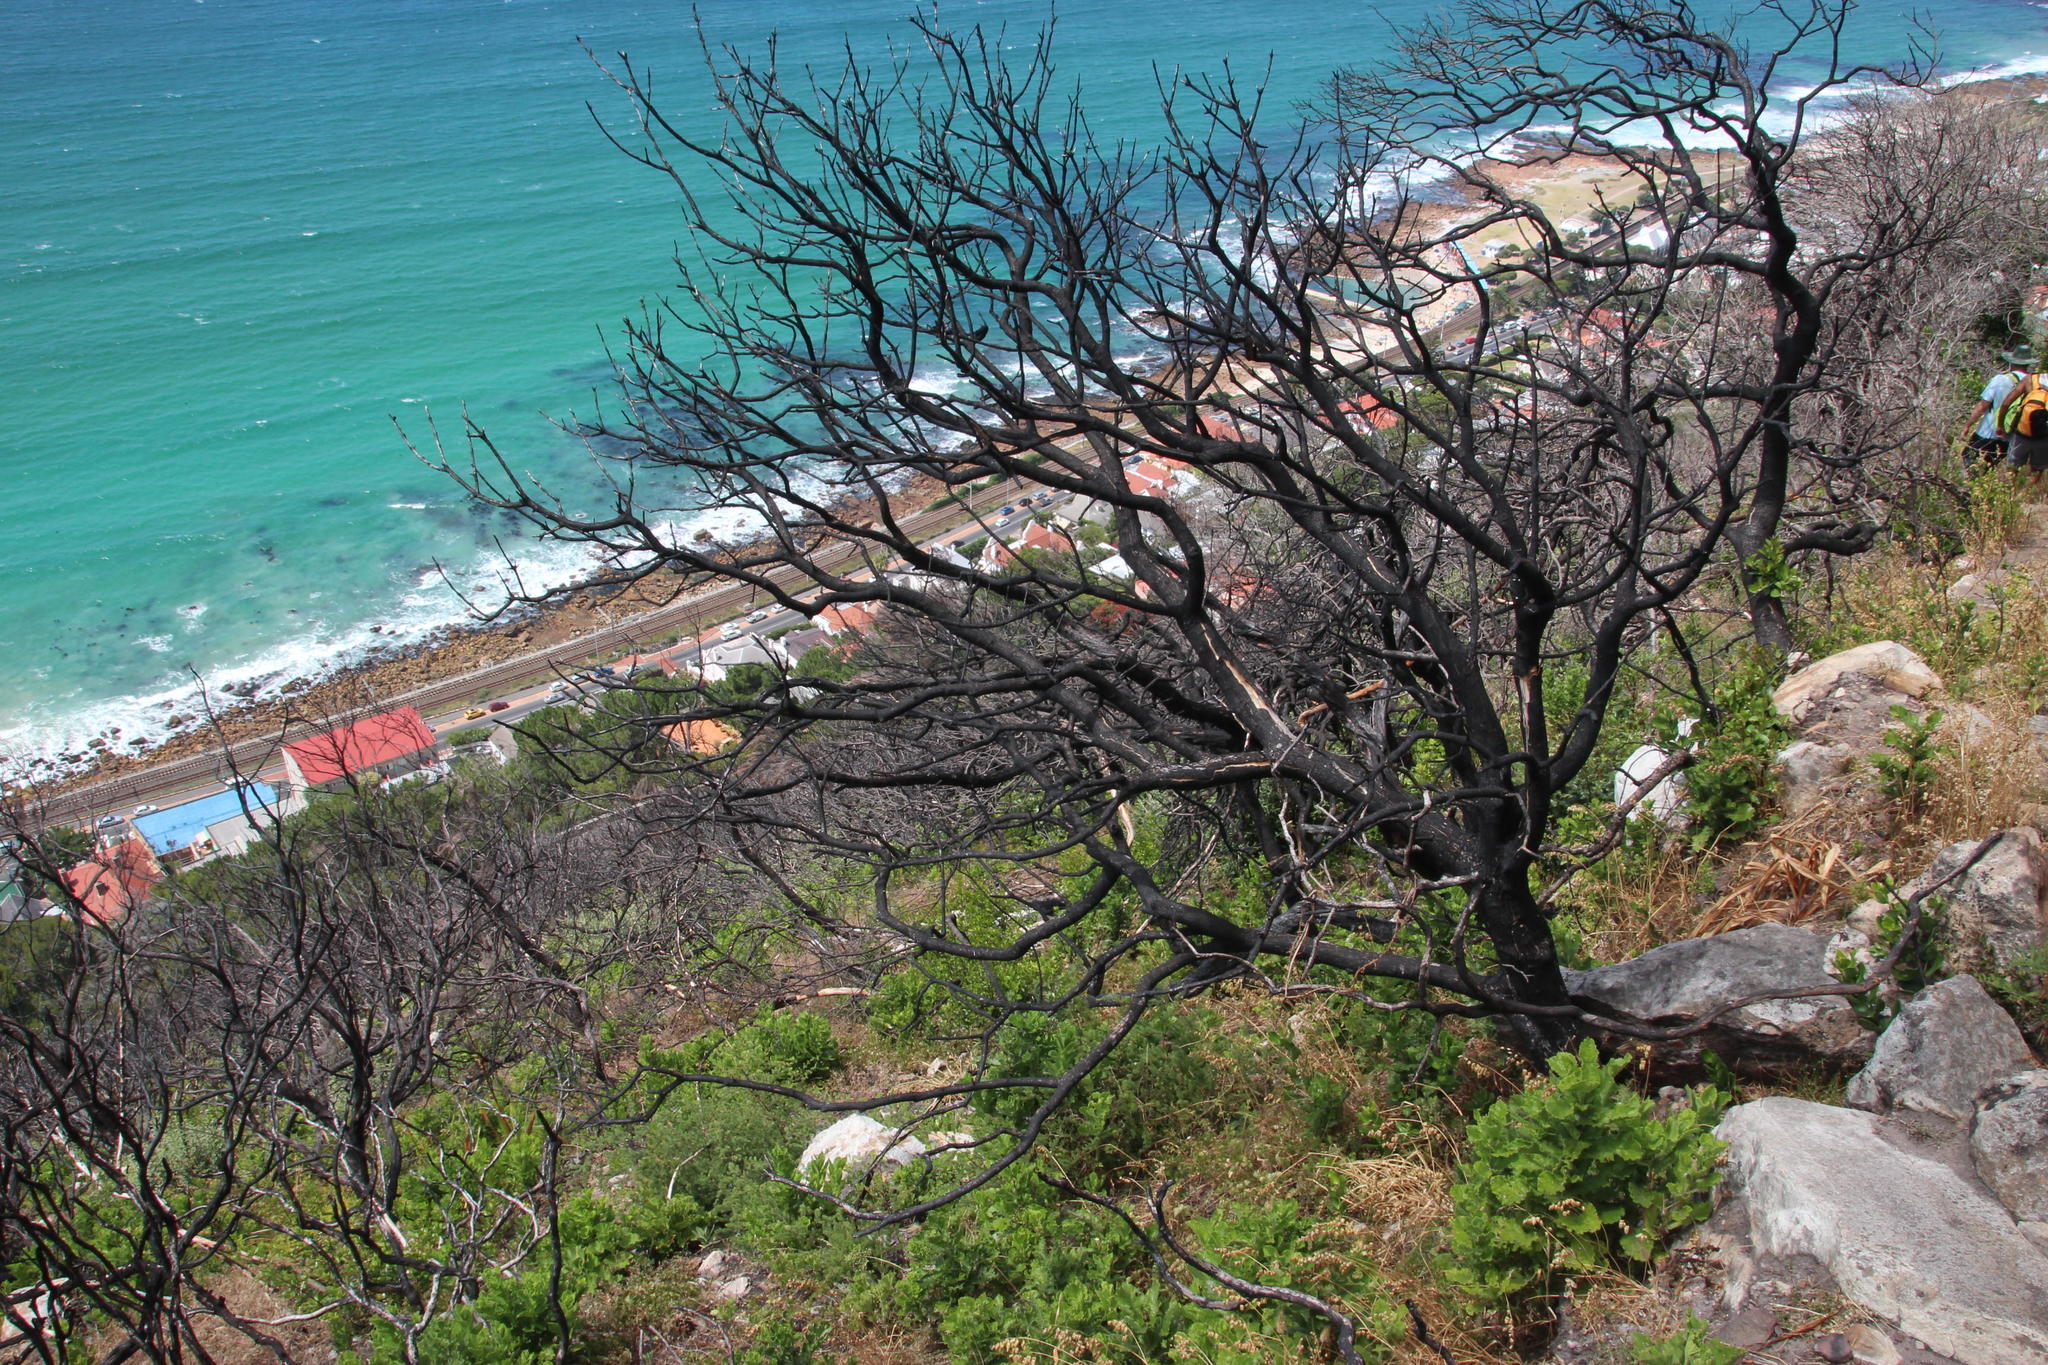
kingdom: Plantae
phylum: Tracheophyta
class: Magnoliopsida
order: Celastrales
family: Celastraceae
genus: Maurocenia
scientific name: Maurocenia frangula
